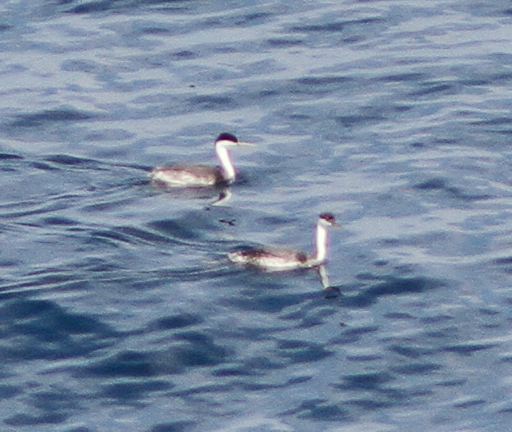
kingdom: Animalia
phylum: Chordata
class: Aves
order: Podicipediformes
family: Podicipedidae
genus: Aechmophorus
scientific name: Aechmophorus occidentalis
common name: Western grebe
